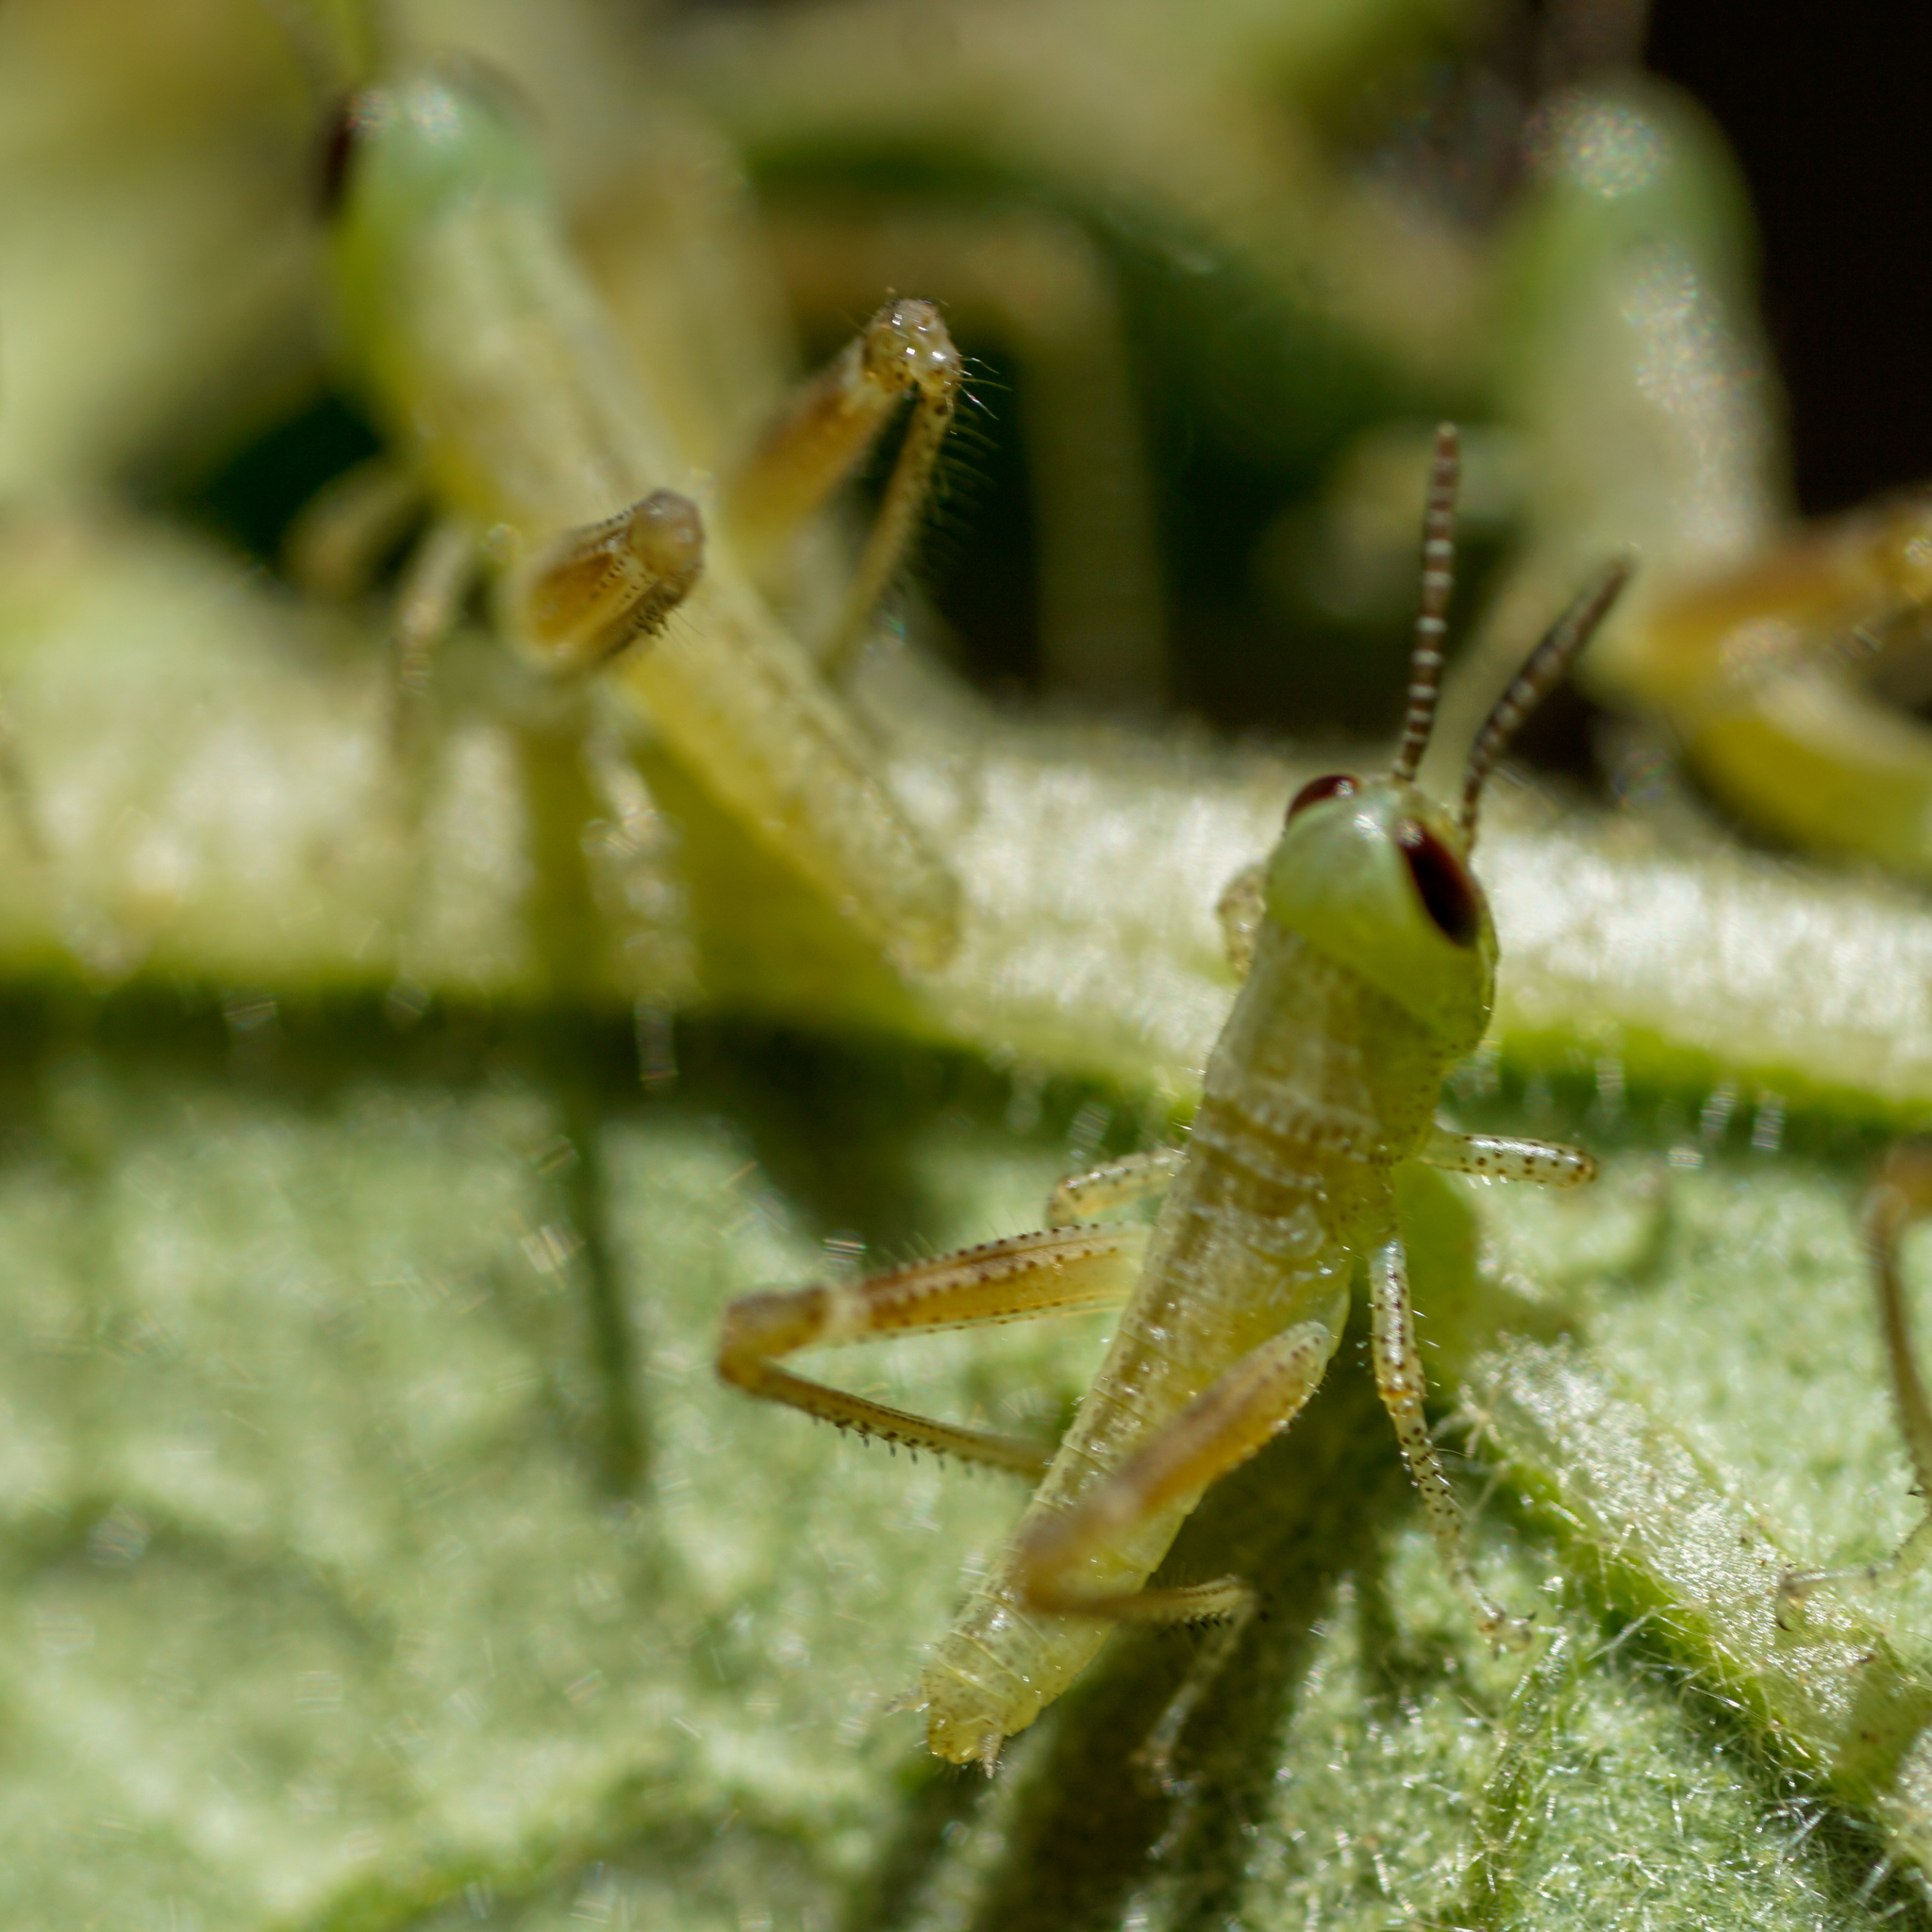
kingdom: Animalia
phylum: Arthropoda
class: Insecta
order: Orthoptera
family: Acrididae
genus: Schistocerca
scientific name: Schistocerca americana
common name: American bird locust
